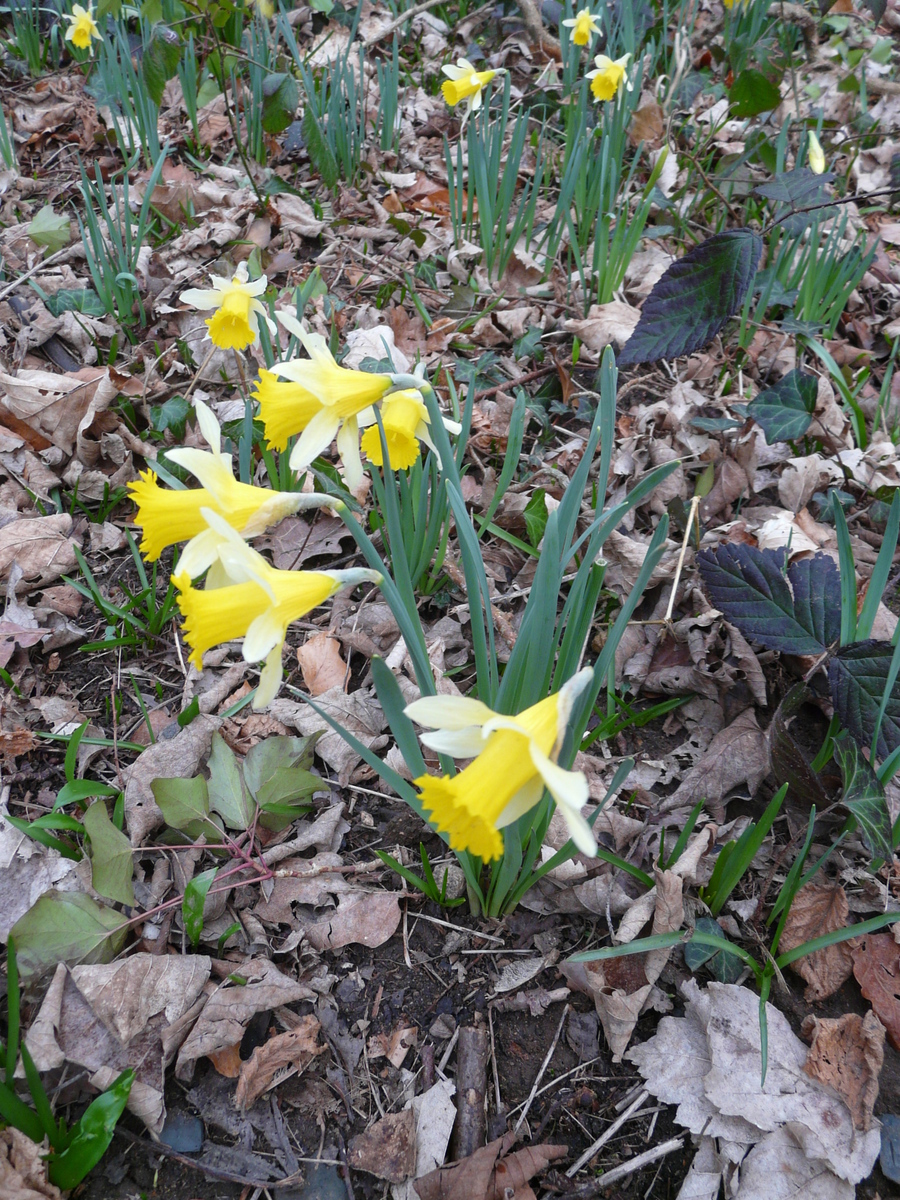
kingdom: Plantae
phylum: Tracheophyta
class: Liliopsida
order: Asparagales
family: Amaryllidaceae
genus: Narcissus
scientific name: Narcissus pseudonarcissus
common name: Daffodil
